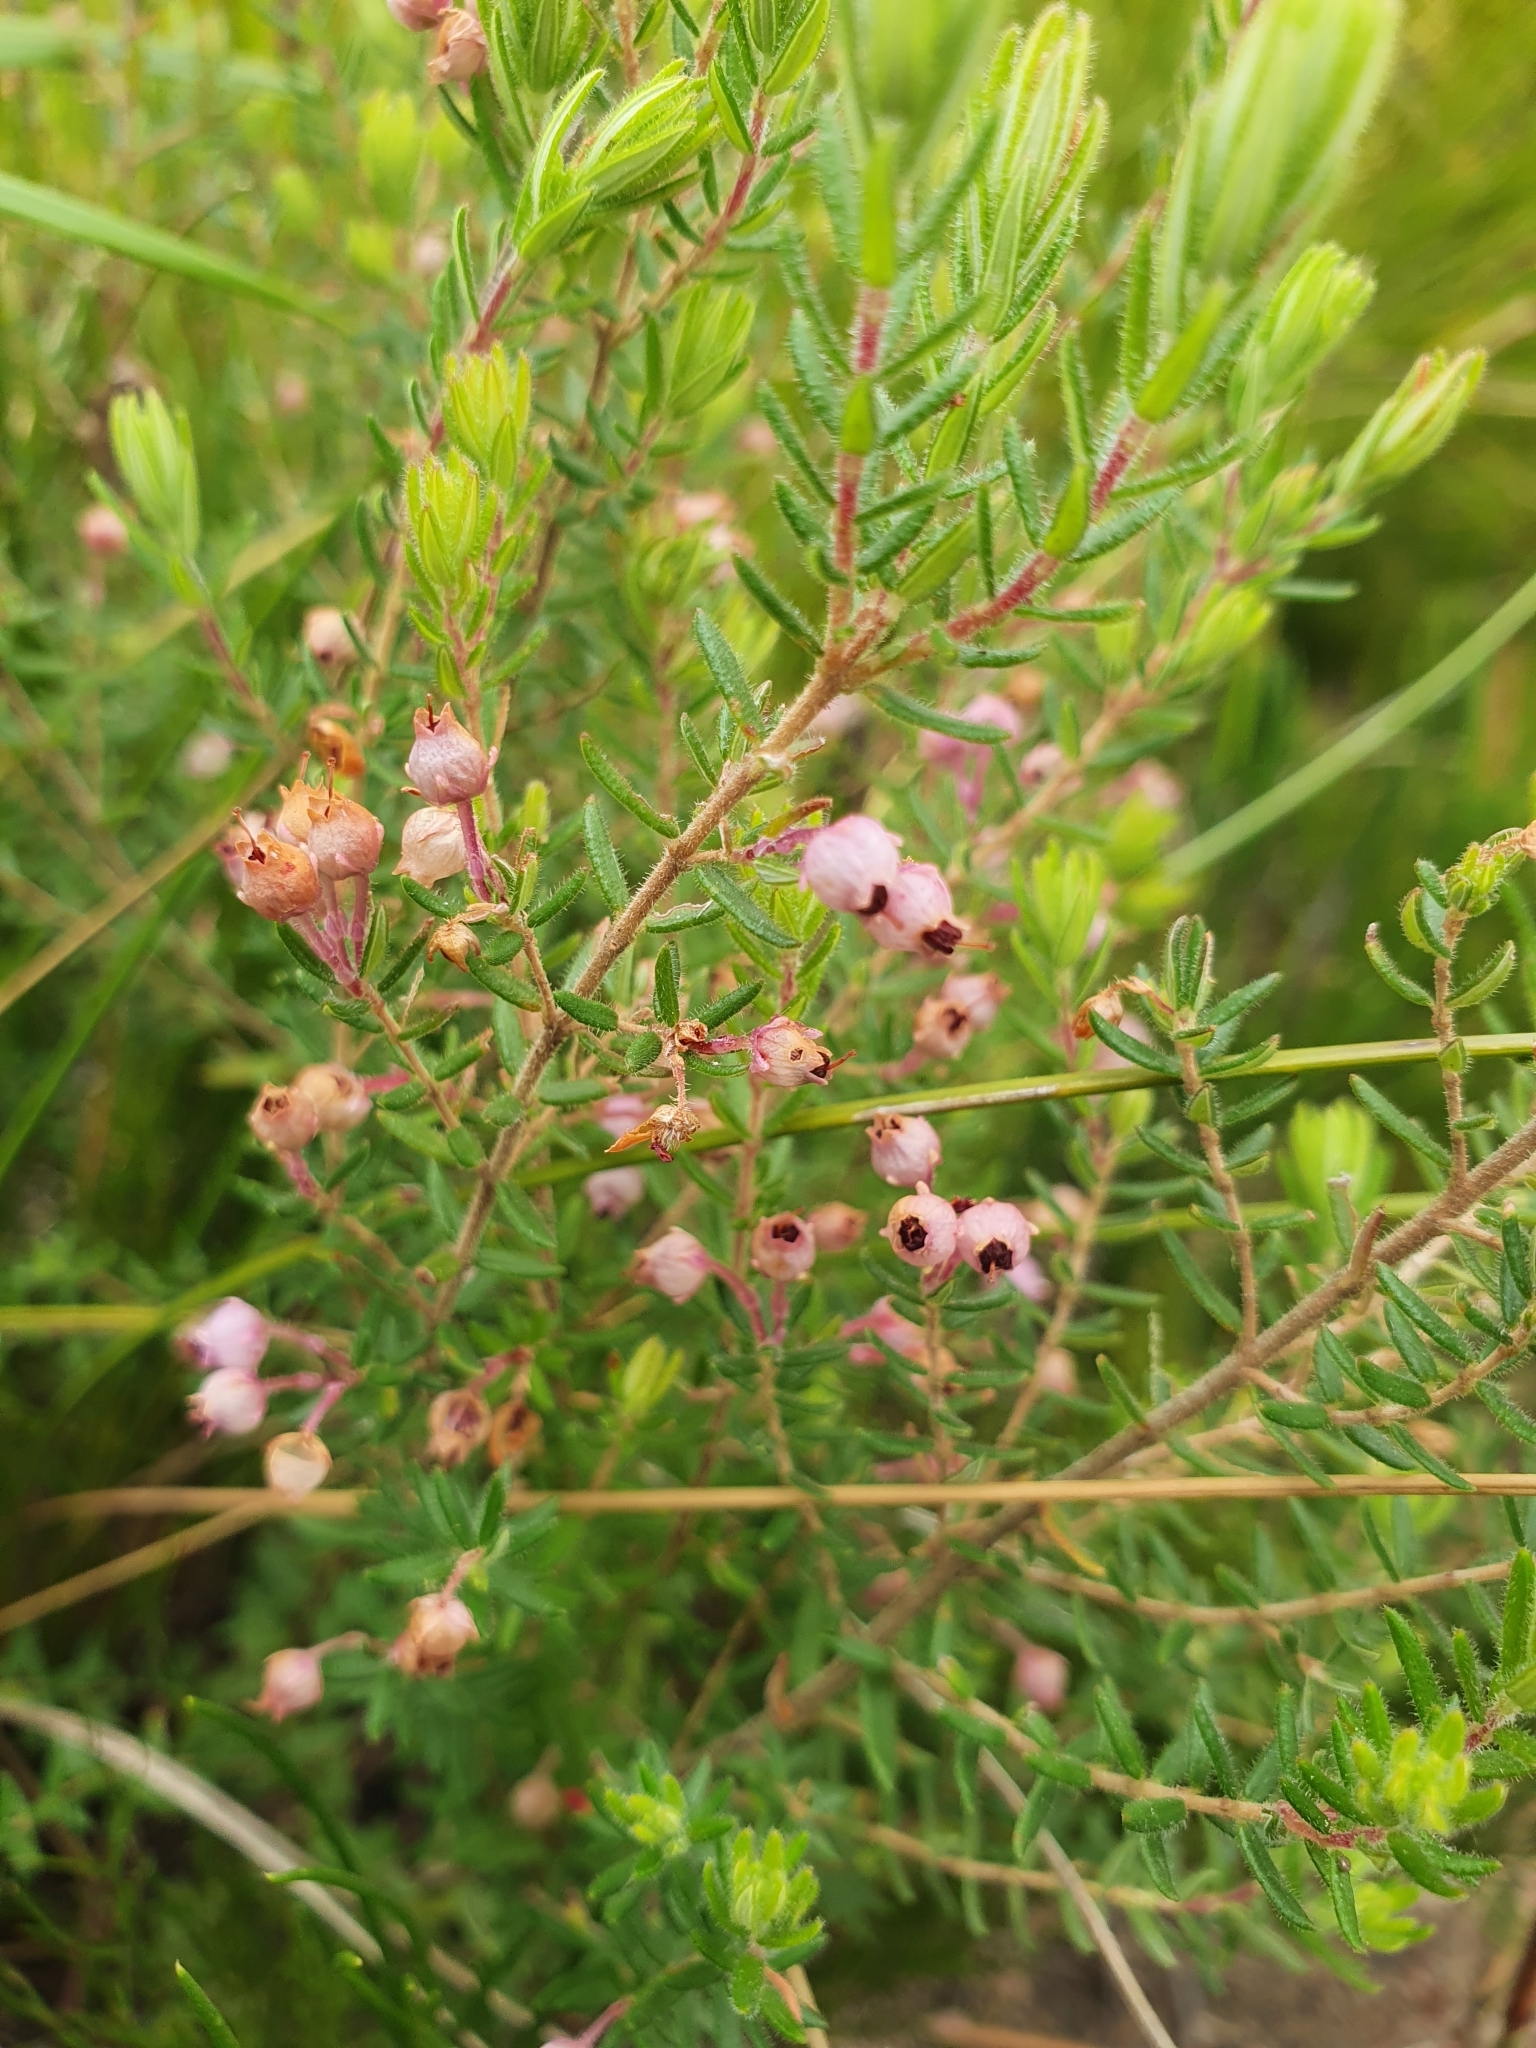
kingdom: Plantae
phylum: Tracheophyta
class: Magnoliopsida
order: Ericales
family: Ericaceae
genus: Erica
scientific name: Erica grata
